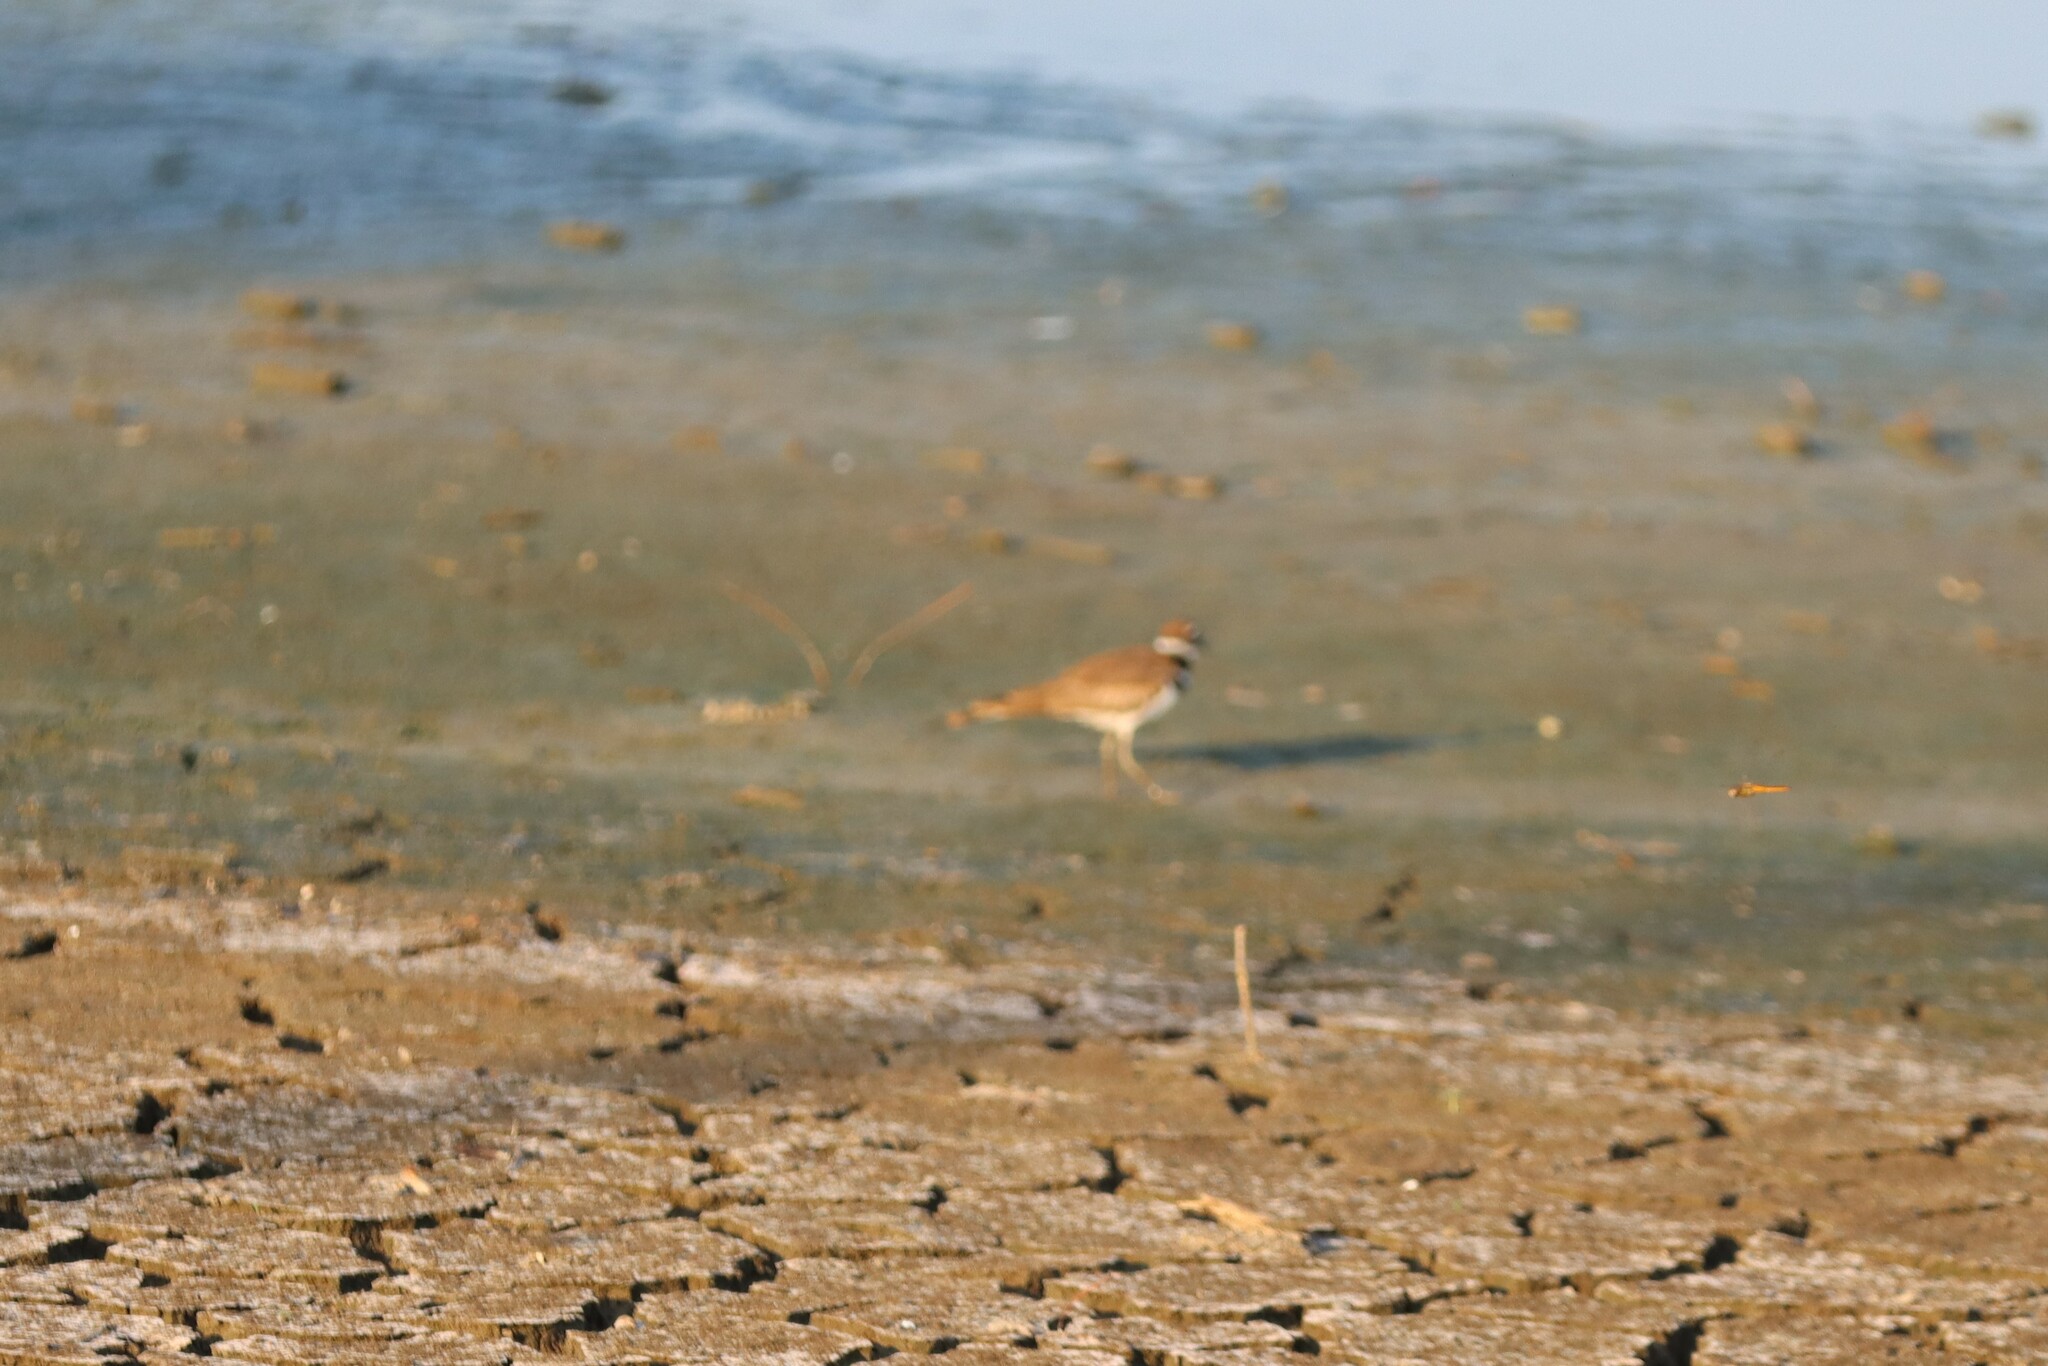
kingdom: Animalia
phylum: Chordata
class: Aves
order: Charadriiformes
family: Charadriidae
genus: Charadrius
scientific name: Charadrius vociferus
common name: Killdeer
